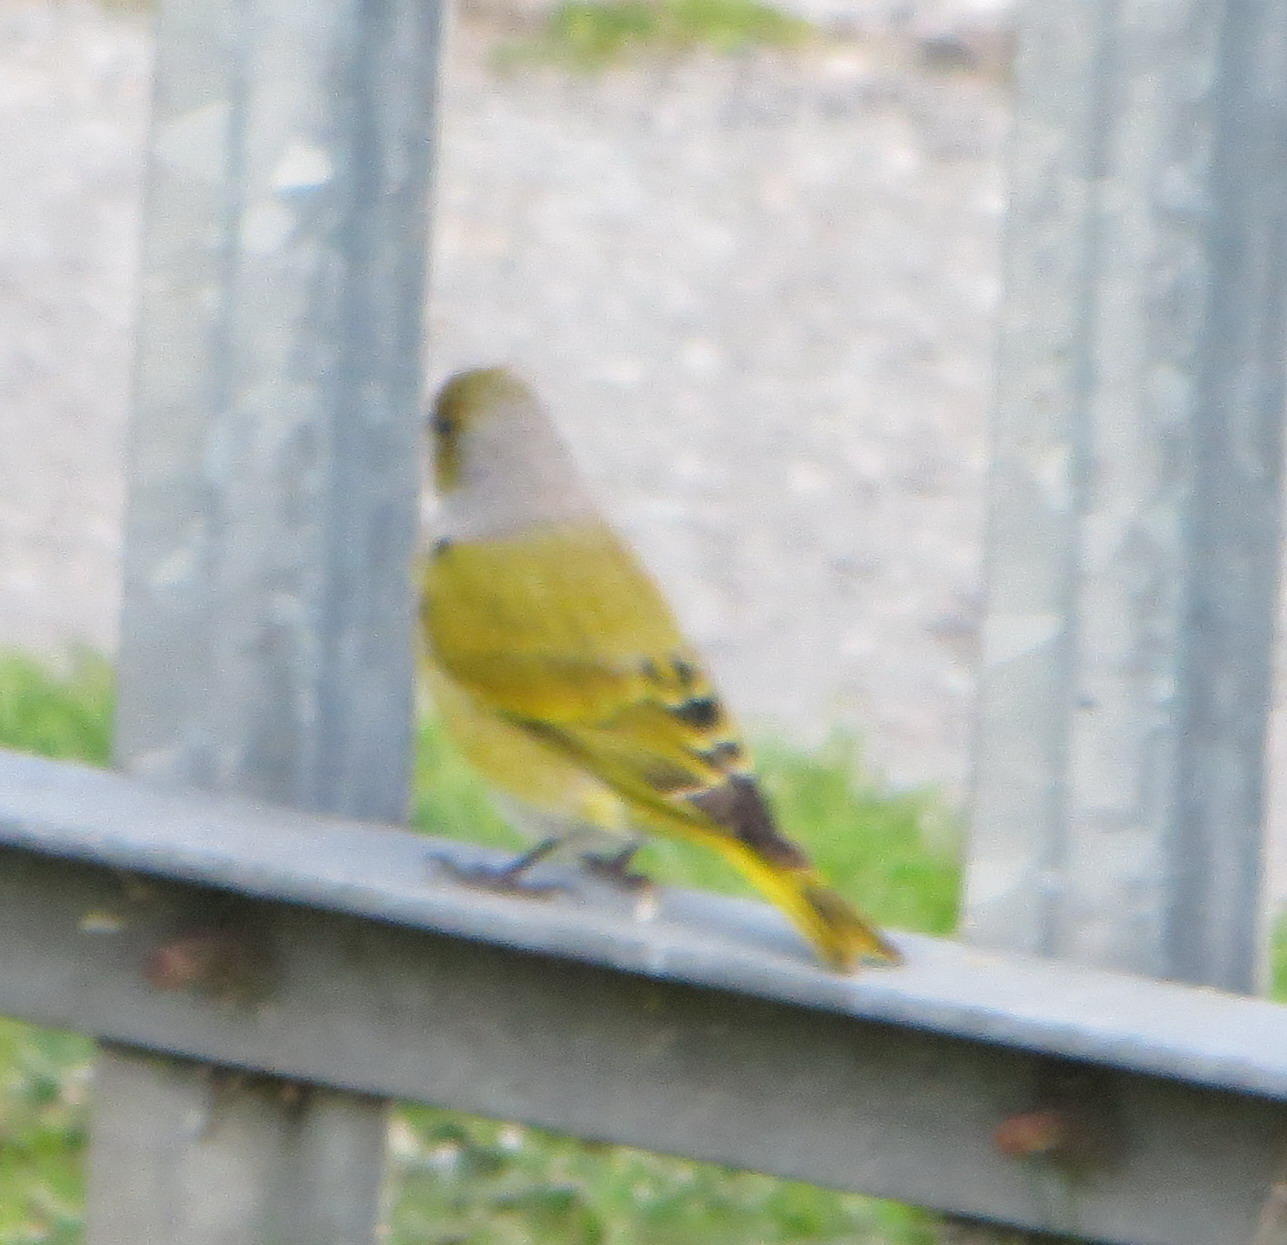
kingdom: Animalia
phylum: Chordata
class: Aves
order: Passeriformes
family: Fringillidae
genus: Serinus
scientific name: Serinus canicollis
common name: Cape canary
